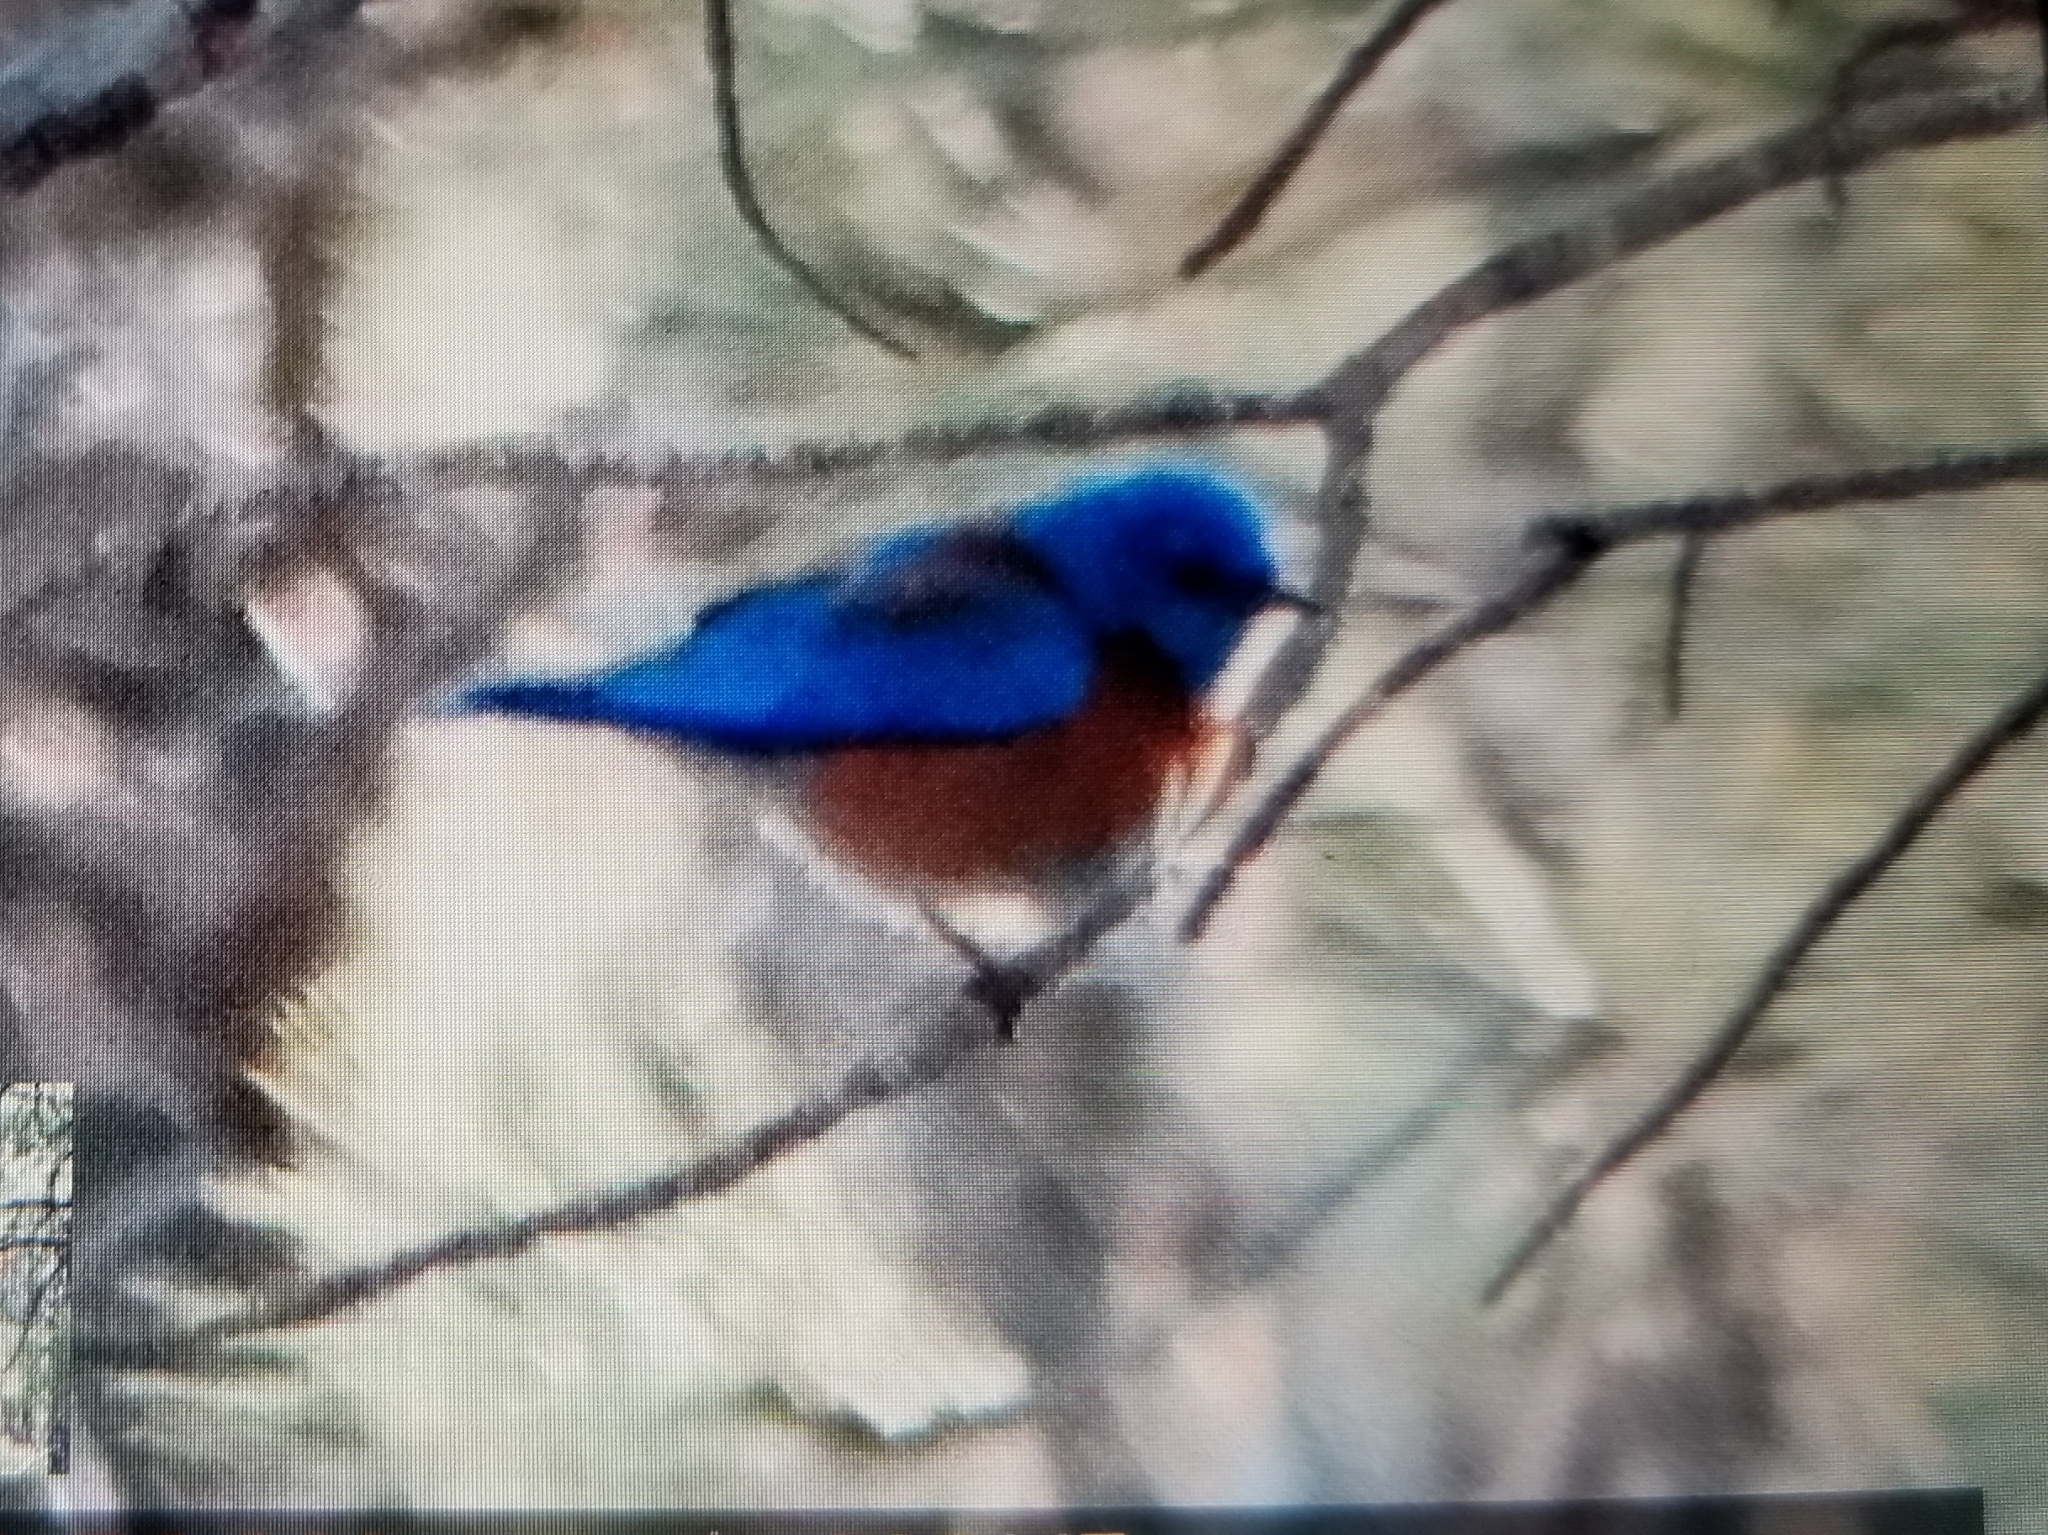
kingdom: Animalia
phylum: Chordata
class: Aves
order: Passeriformes
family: Turdidae
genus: Sialia
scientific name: Sialia mexicana
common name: Western bluebird
